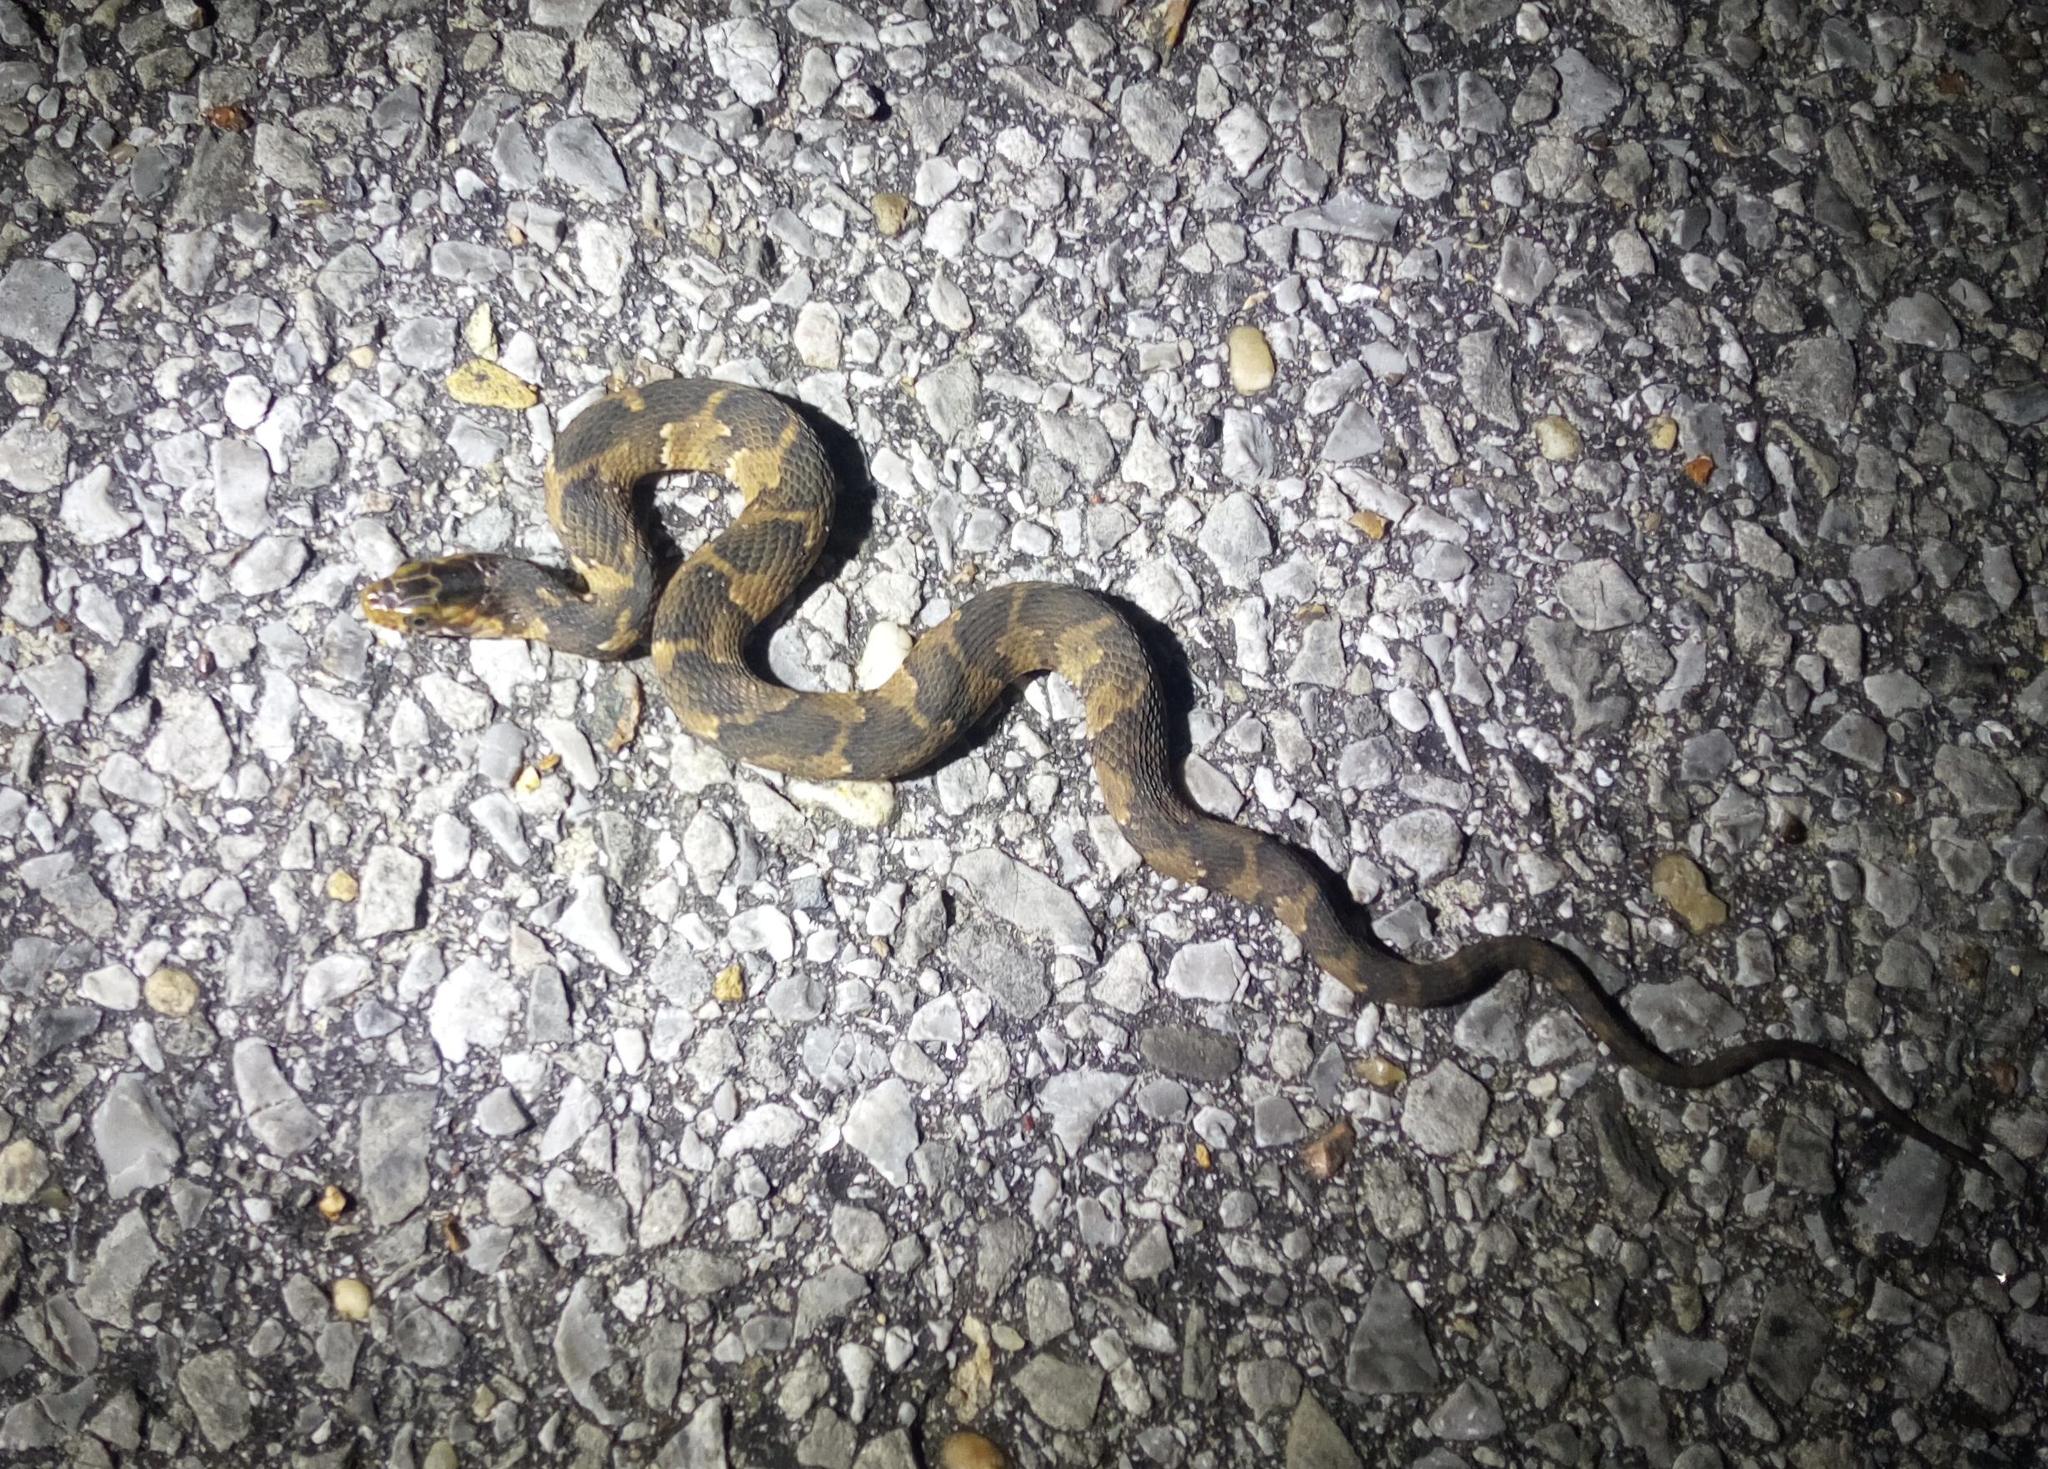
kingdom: Animalia
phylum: Chordata
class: Squamata
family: Colubridae
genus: Nerodia
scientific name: Nerodia fasciata
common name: Southern water snake
